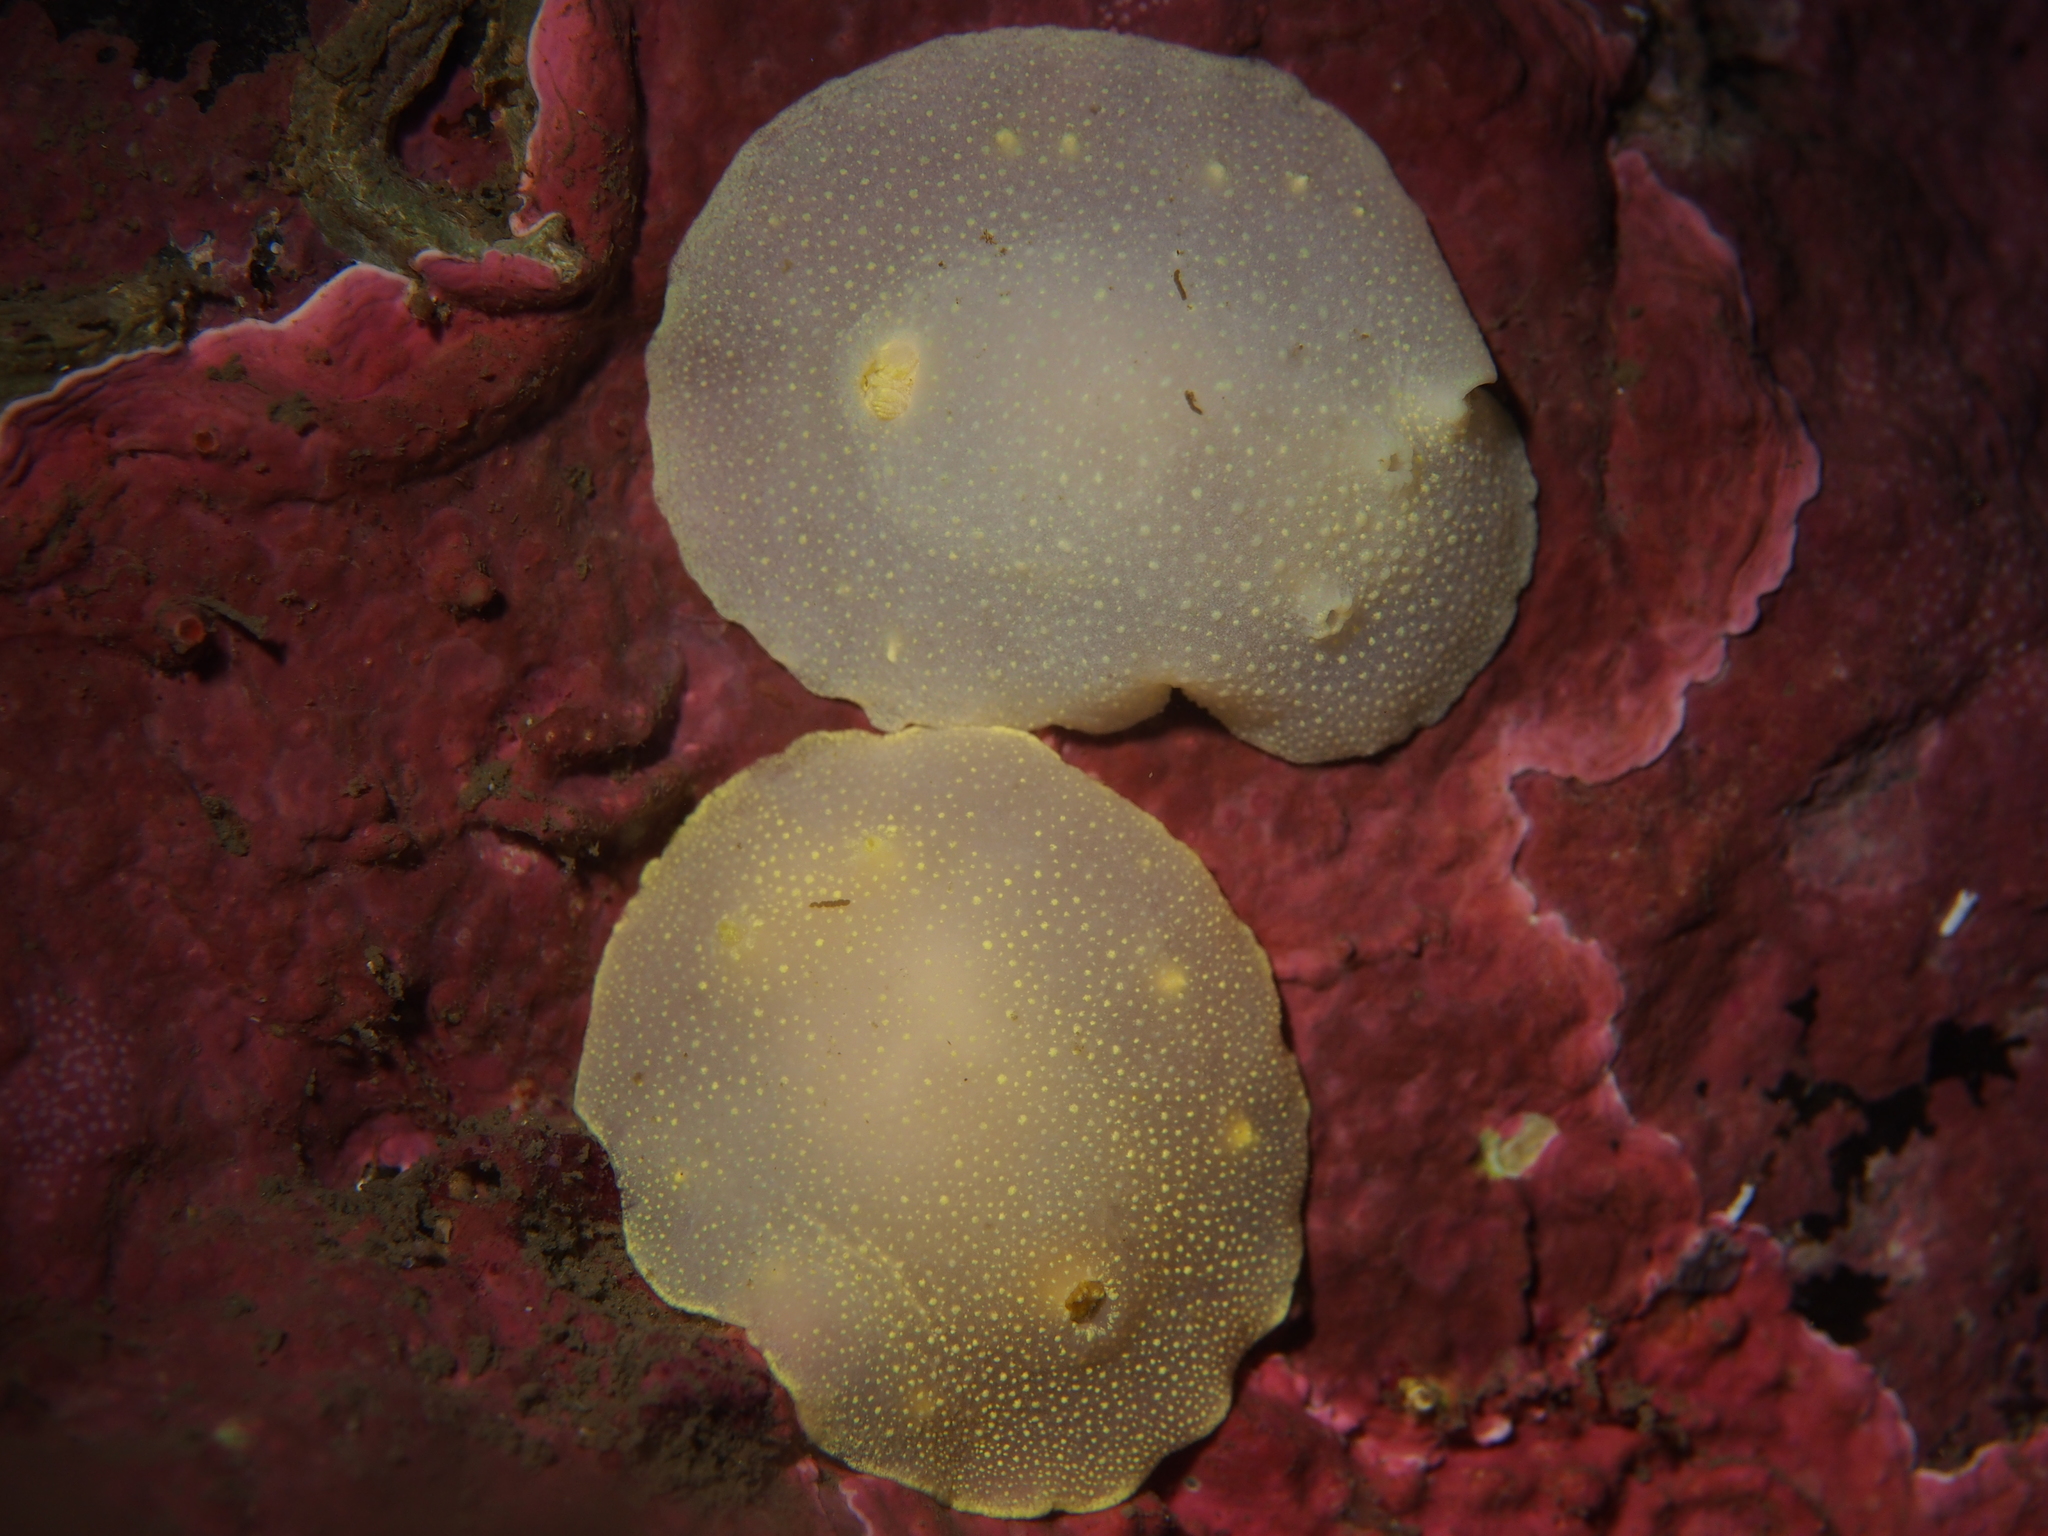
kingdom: Animalia
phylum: Mollusca
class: Gastropoda
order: Nudibranchia
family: Cadlinidae
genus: Cadlina
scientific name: Cadlina laevis
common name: White atlantic cadlina
